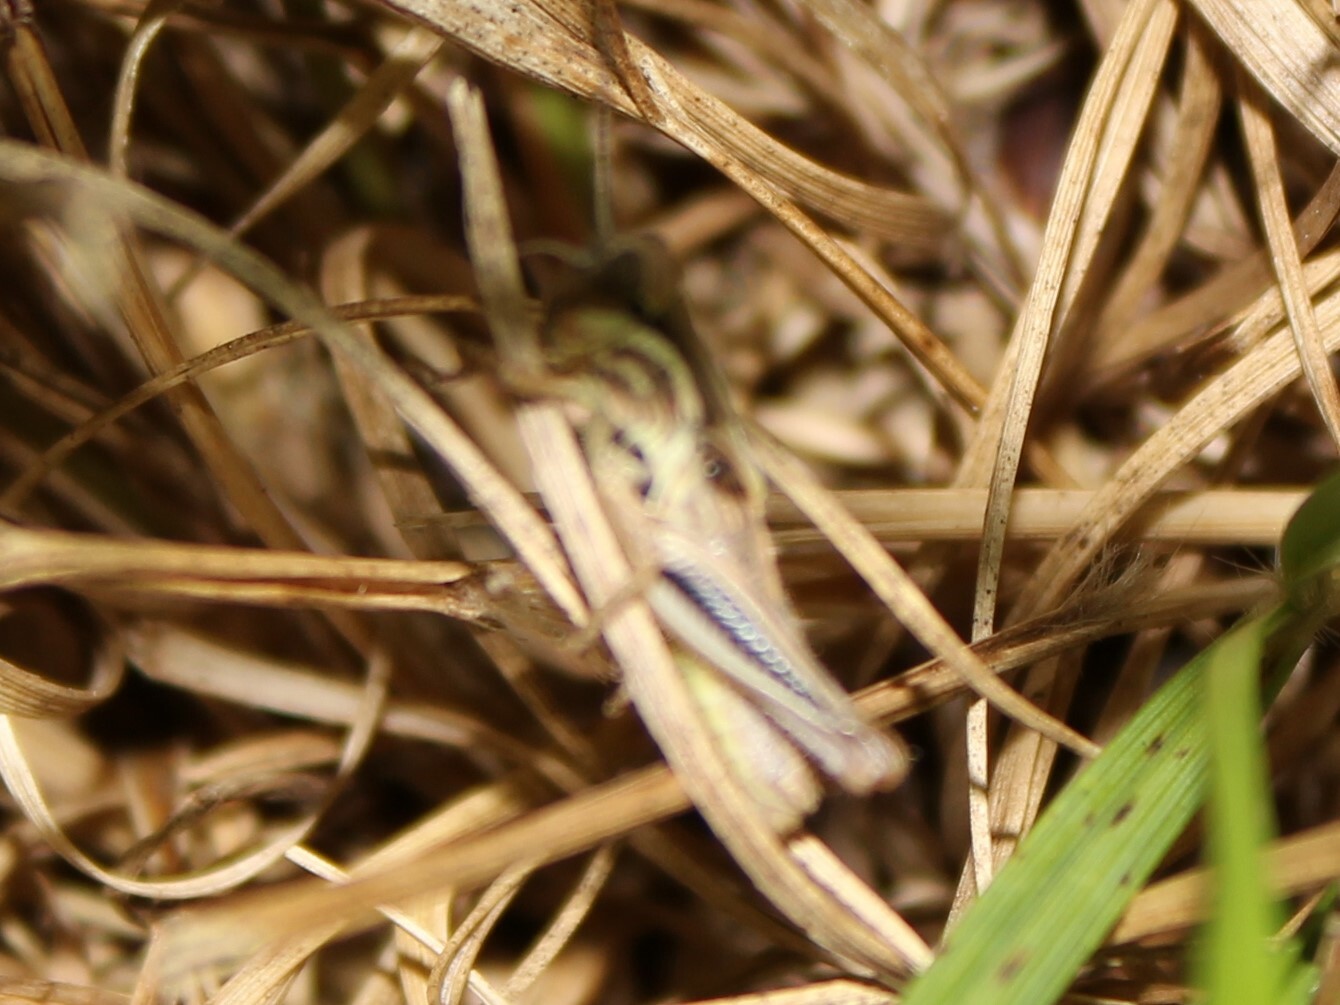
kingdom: Animalia
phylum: Arthropoda
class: Insecta
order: Orthoptera
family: Acrididae
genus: Melanoplus
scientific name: Melanoplus
